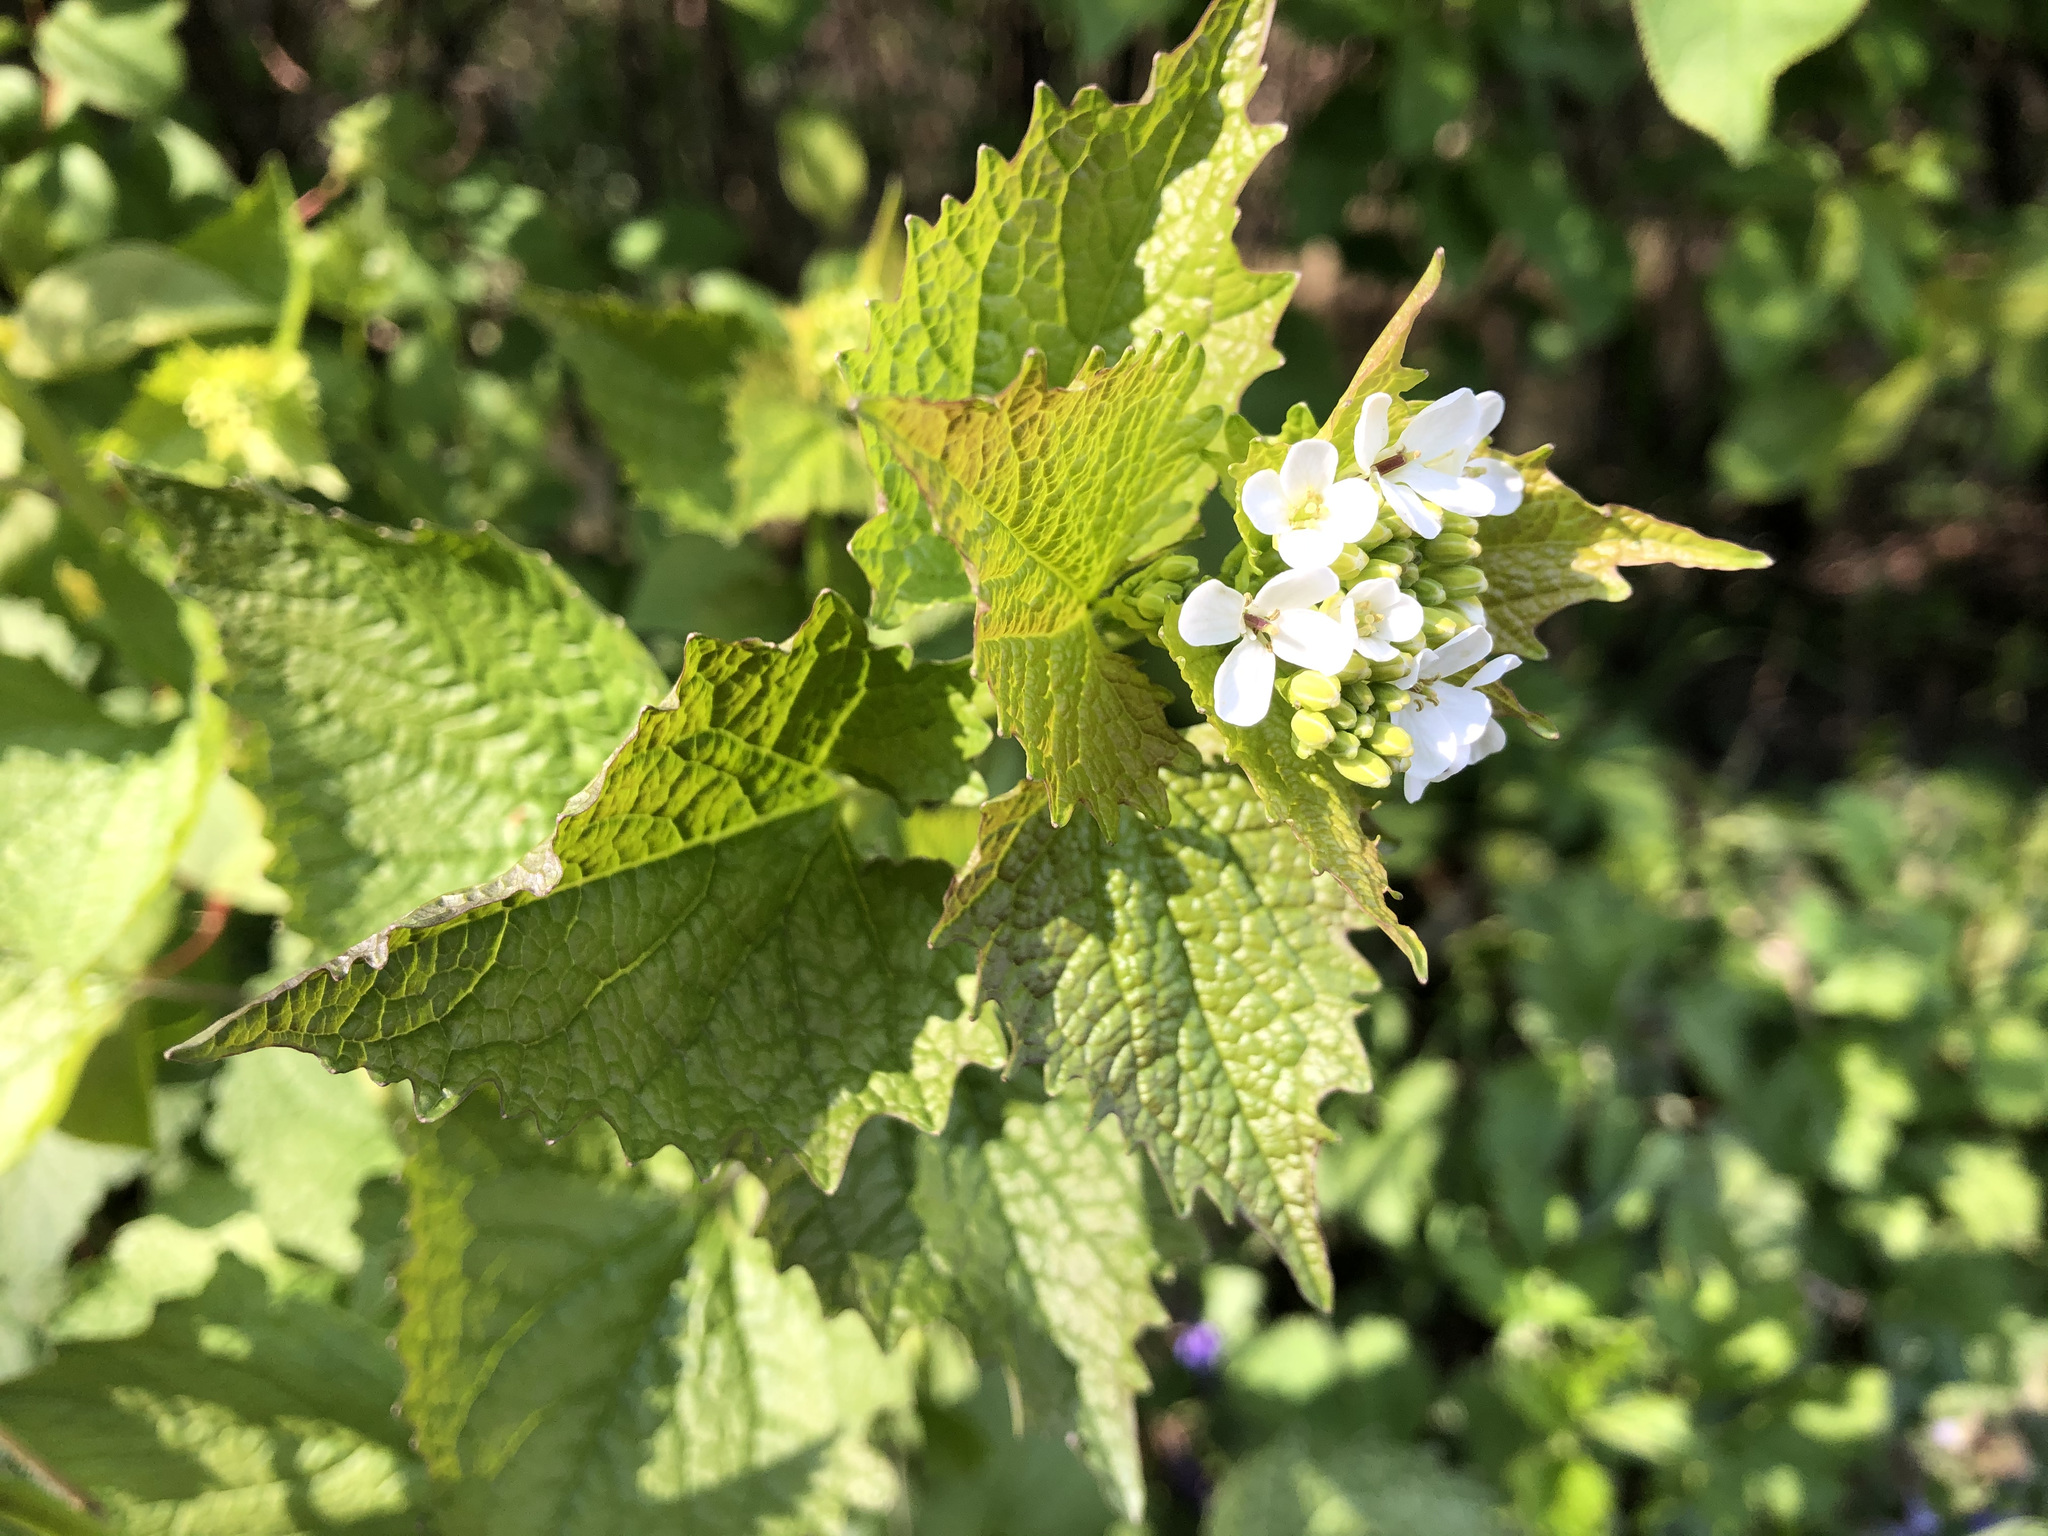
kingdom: Plantae
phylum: Tracheophyta
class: Magnoliopsida
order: Brassicales
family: Brassicaceae
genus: Alliaria
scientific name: Alliaria petiolata
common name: Garlic mustard
